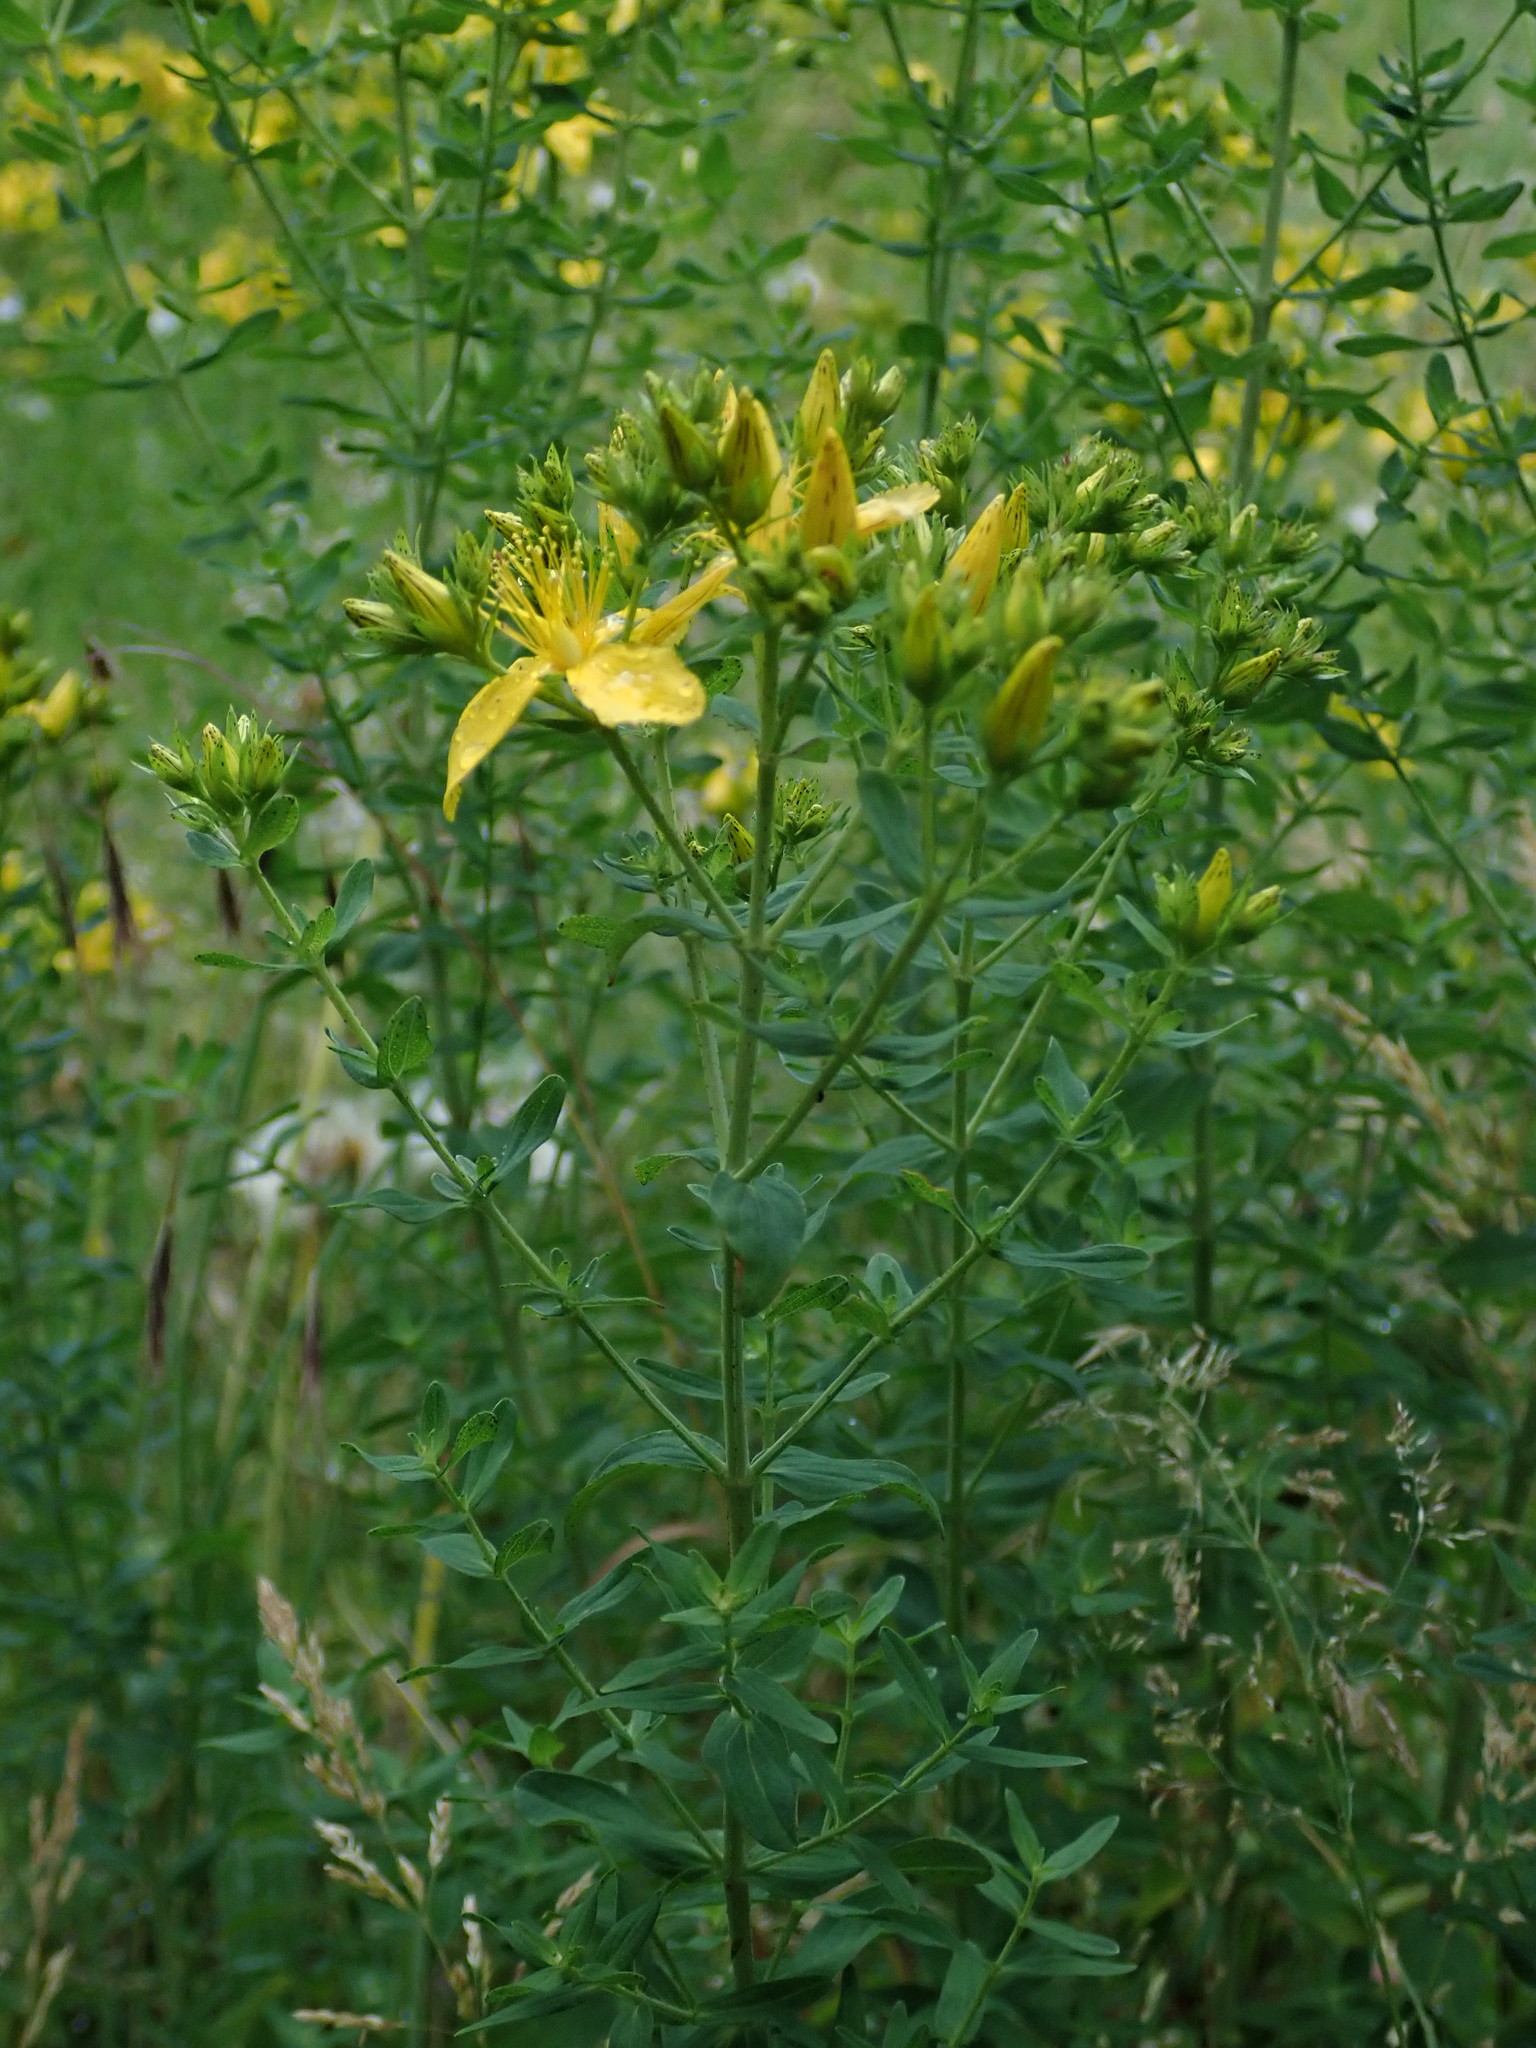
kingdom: Plantae
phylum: Tracheophyta
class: Magnoliopsida
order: Malpighiales
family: Hypericaceae
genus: Hypericum
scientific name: Hypericum perforatum
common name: Common st. johnswort
